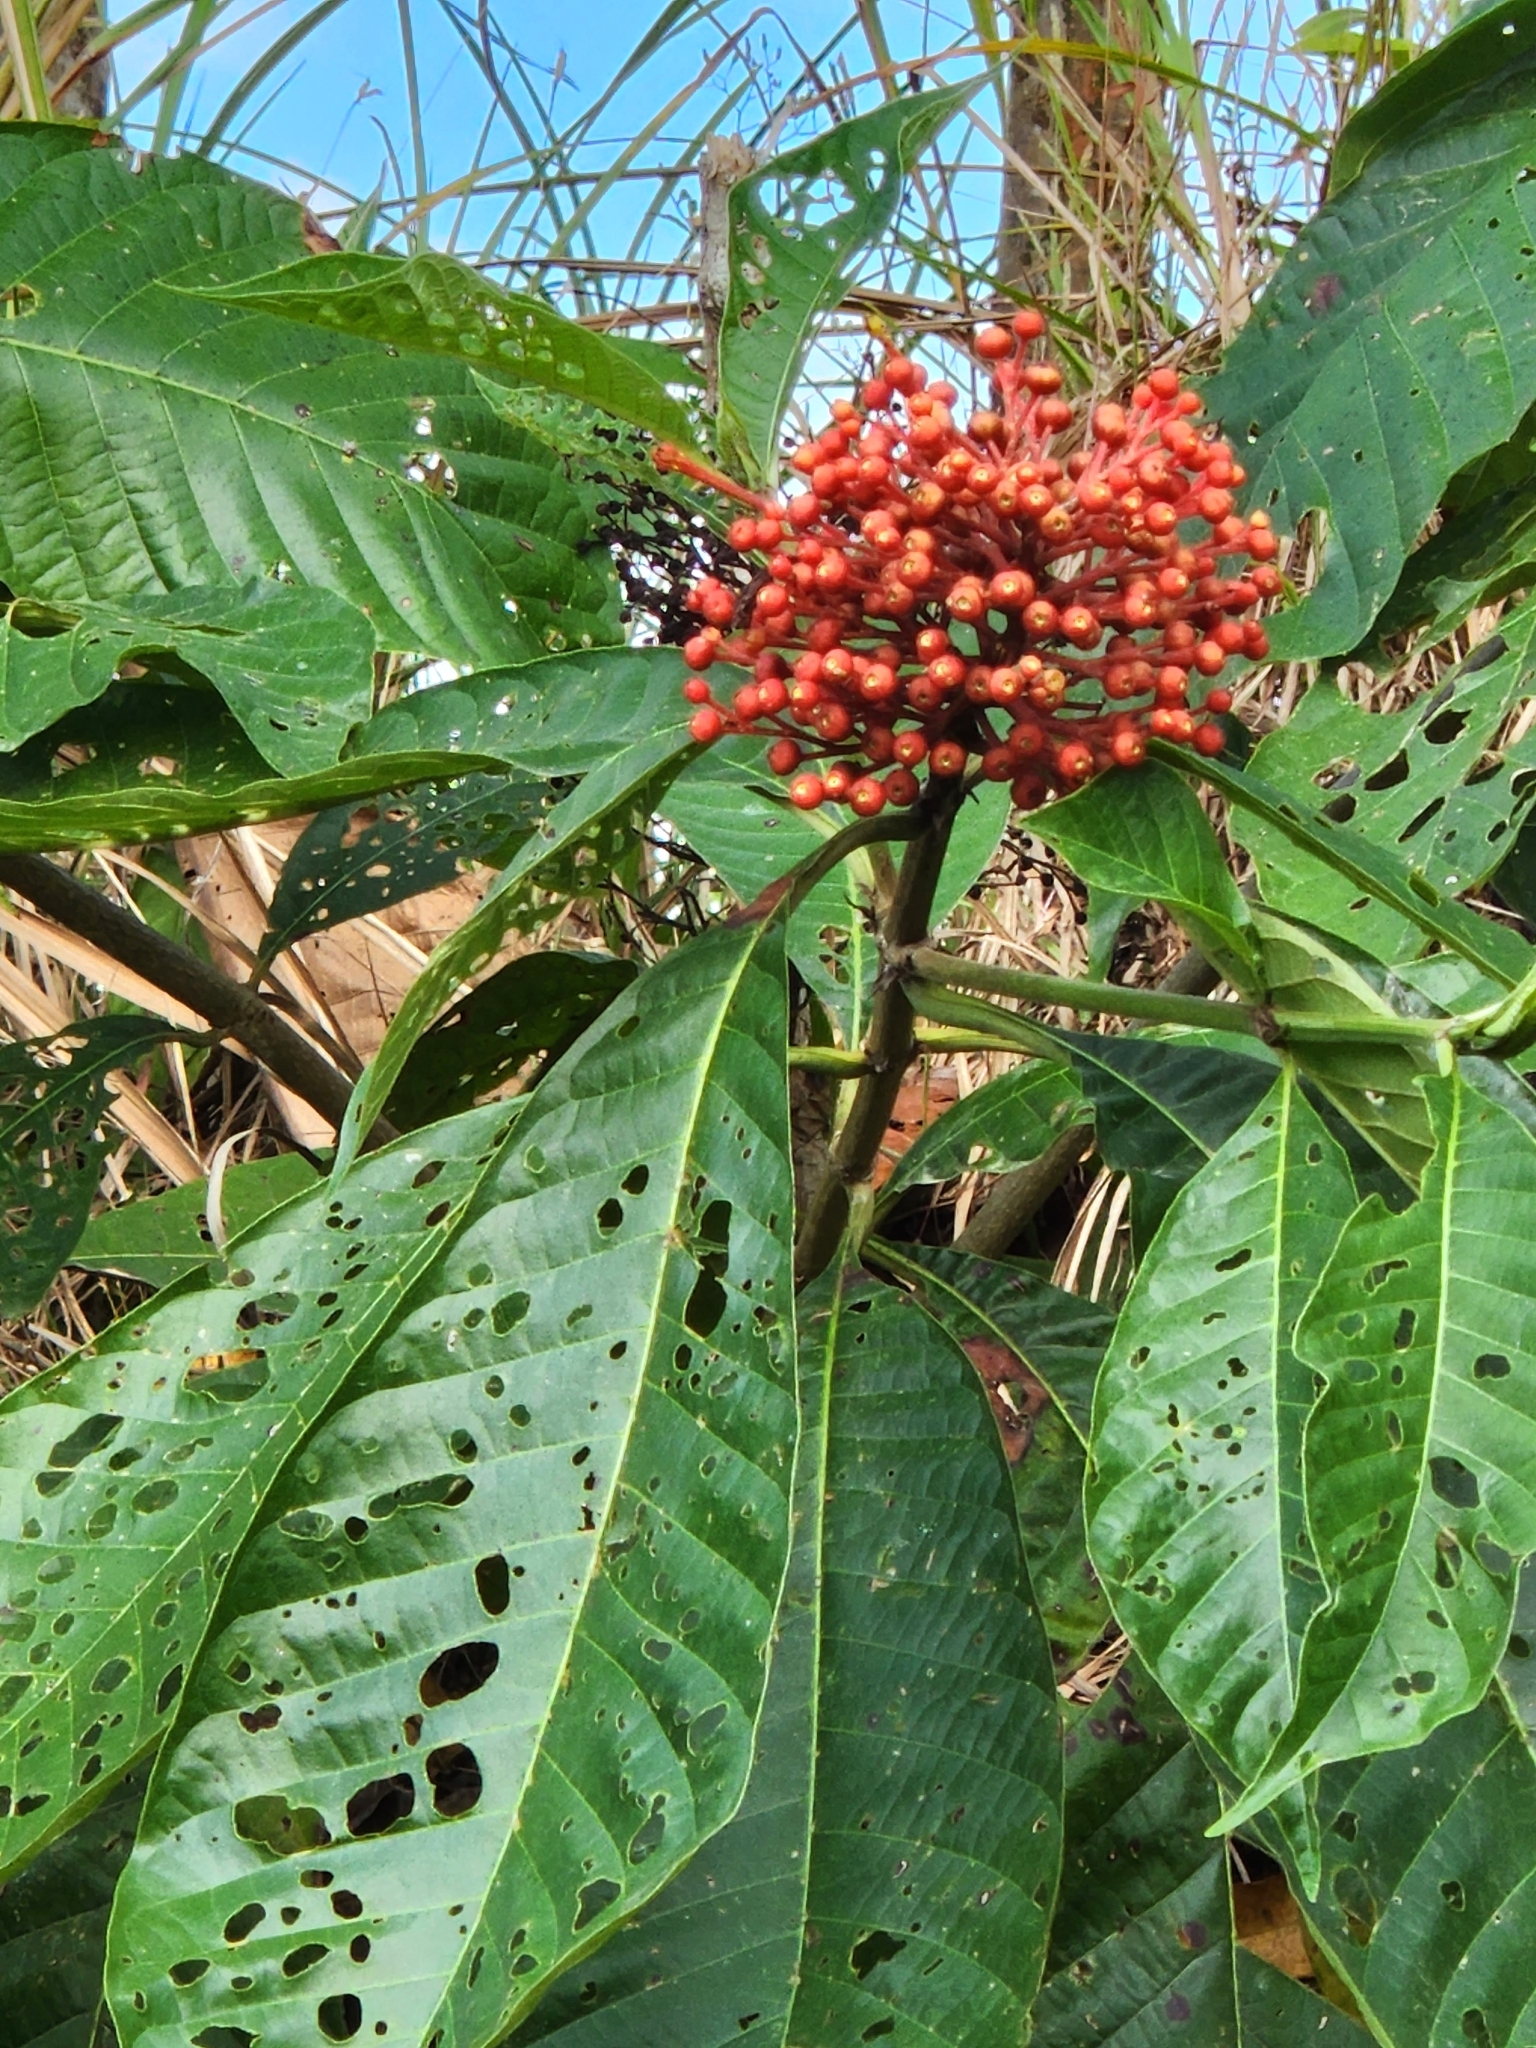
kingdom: Plantae
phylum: Tracheophyta
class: Magnoliopsida
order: Gentianales
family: Rubiaceae
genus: Isertia
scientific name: Isertia haenkeana
